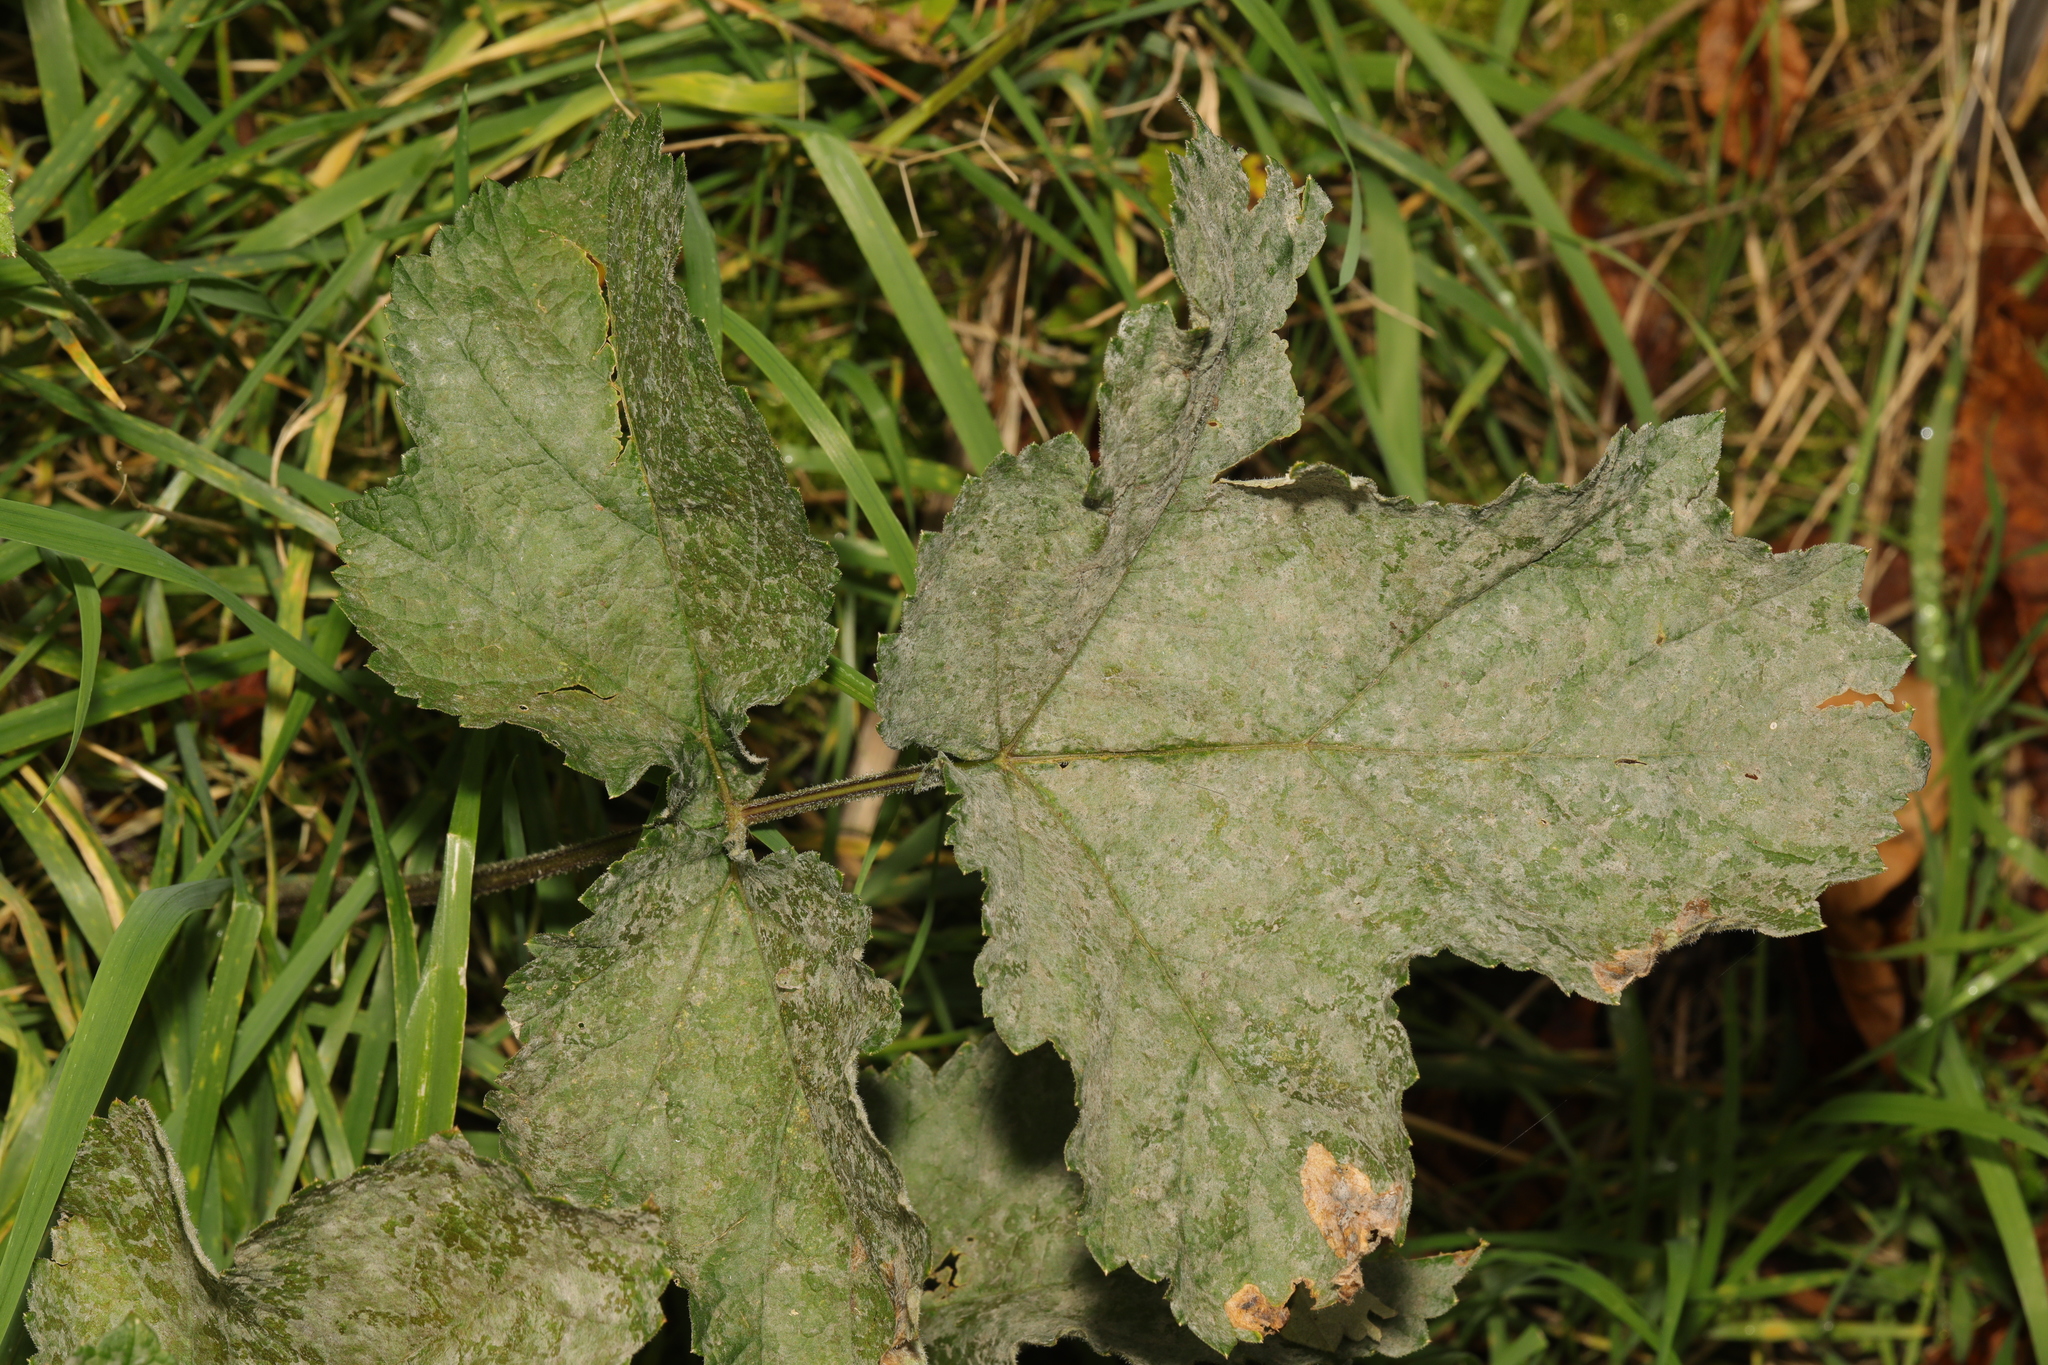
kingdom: Plantae
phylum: Tracheophyta
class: Magnoliopsida
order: Apiales
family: Apiaceae
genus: Heracleum
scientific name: Heracleum sphondylium
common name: Hogweed
